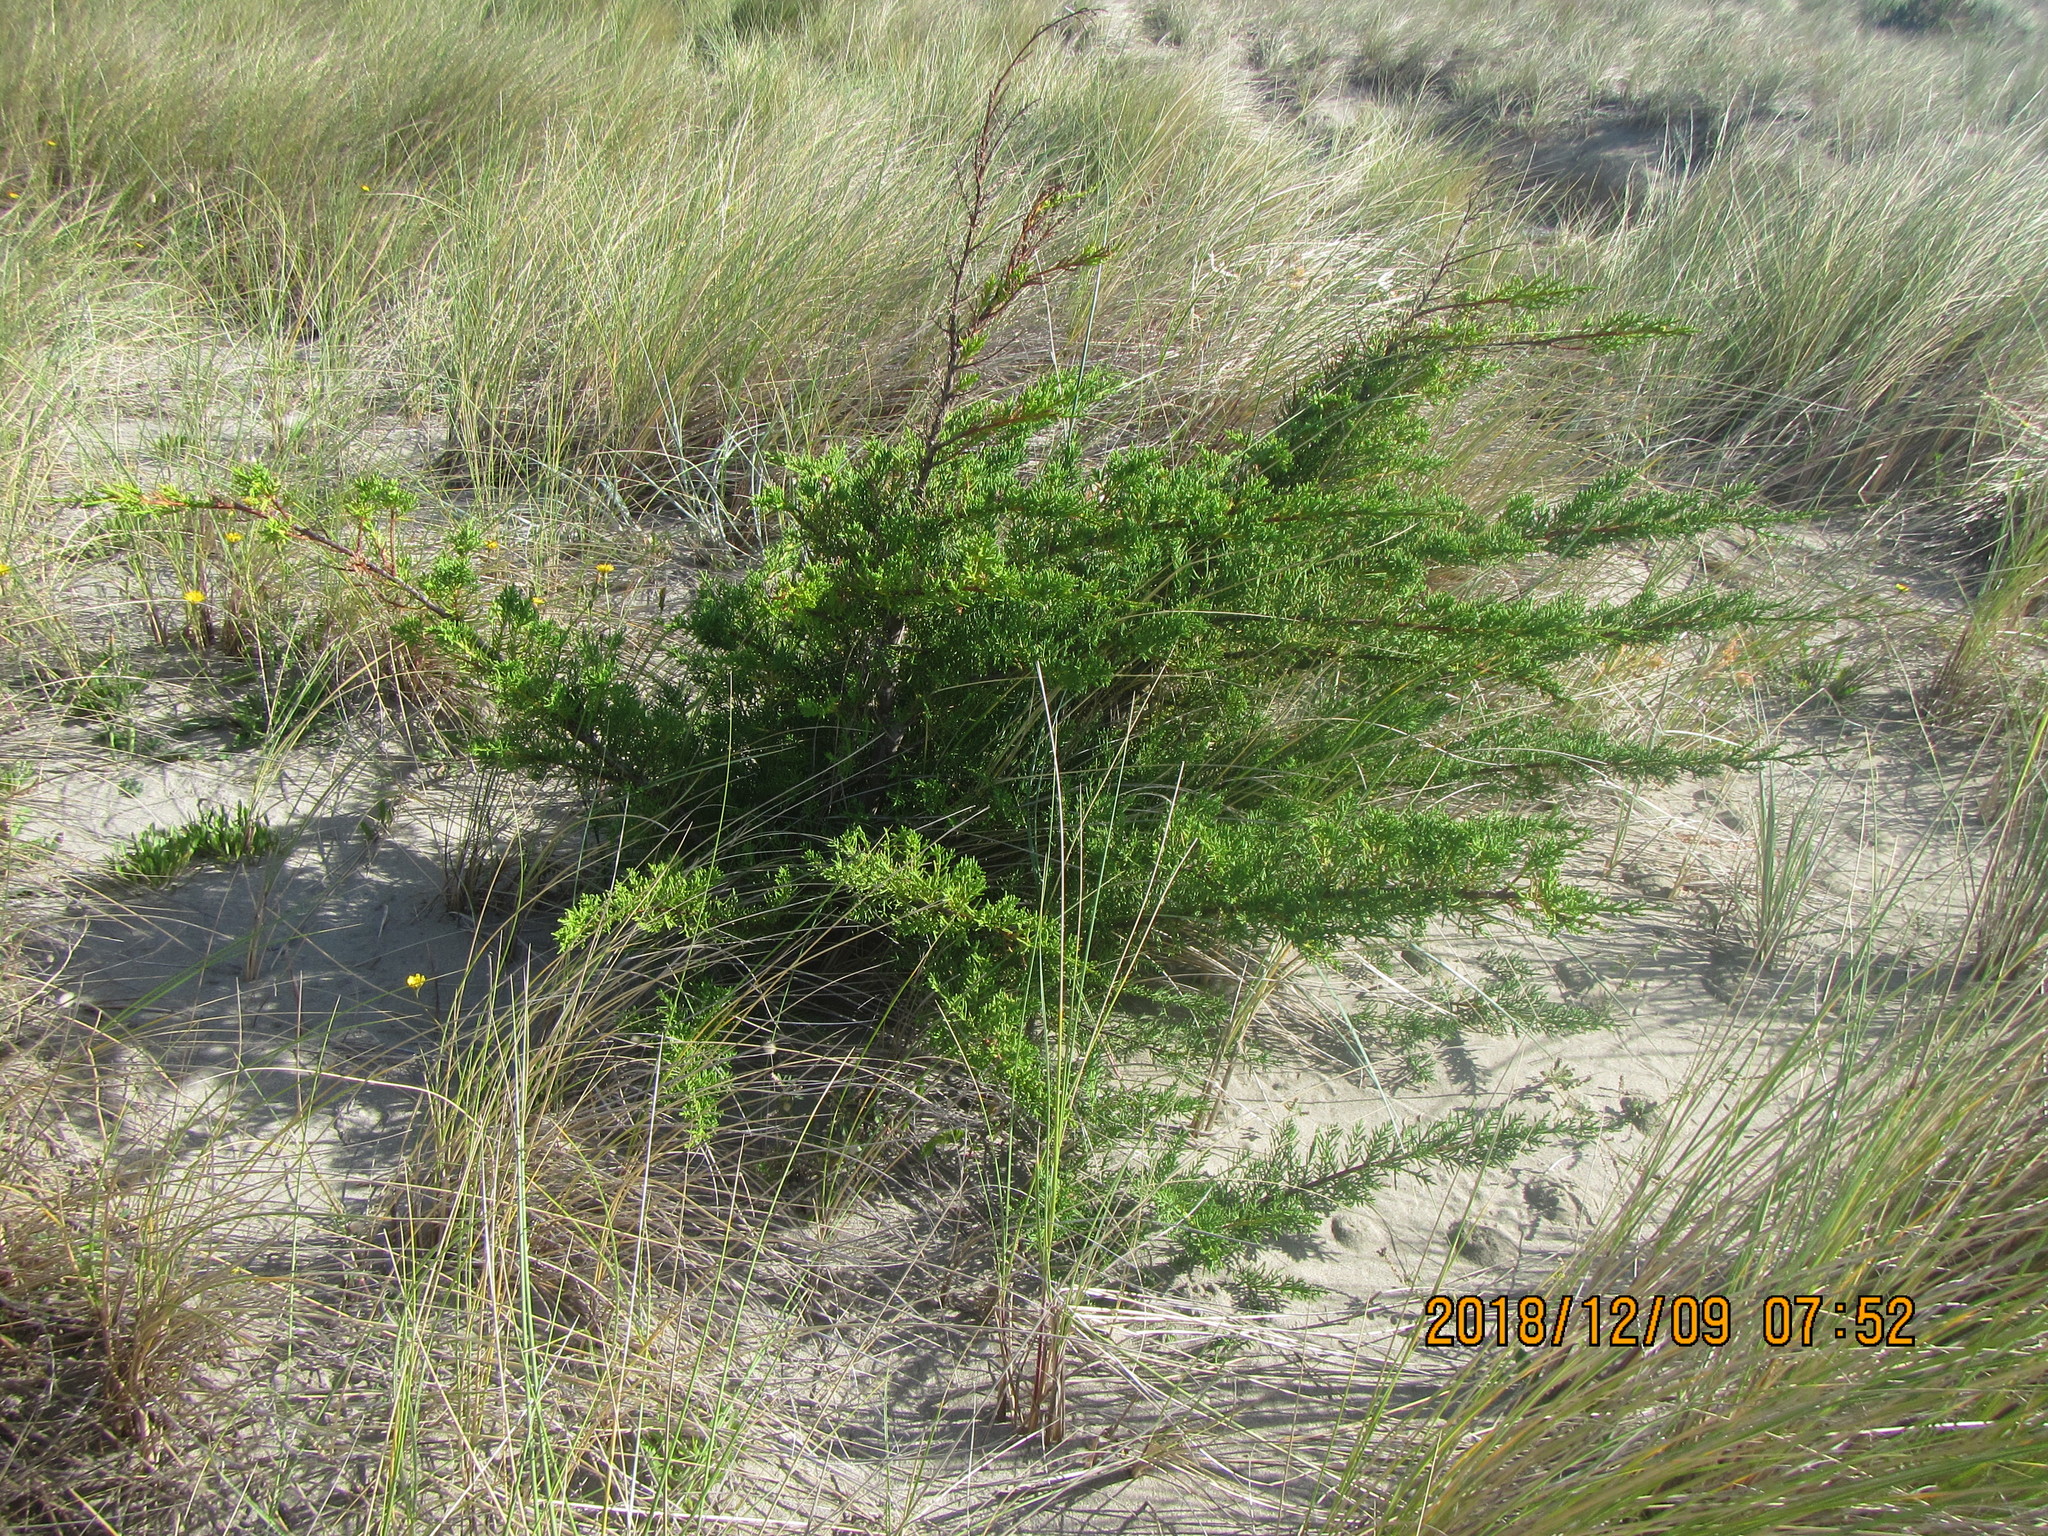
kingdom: Plantae
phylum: Tracheophyta
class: Pinopsida
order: Pinales
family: Cupressaceae
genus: Cupressus
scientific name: Cupressus macrocarpa
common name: Monterey cypress
